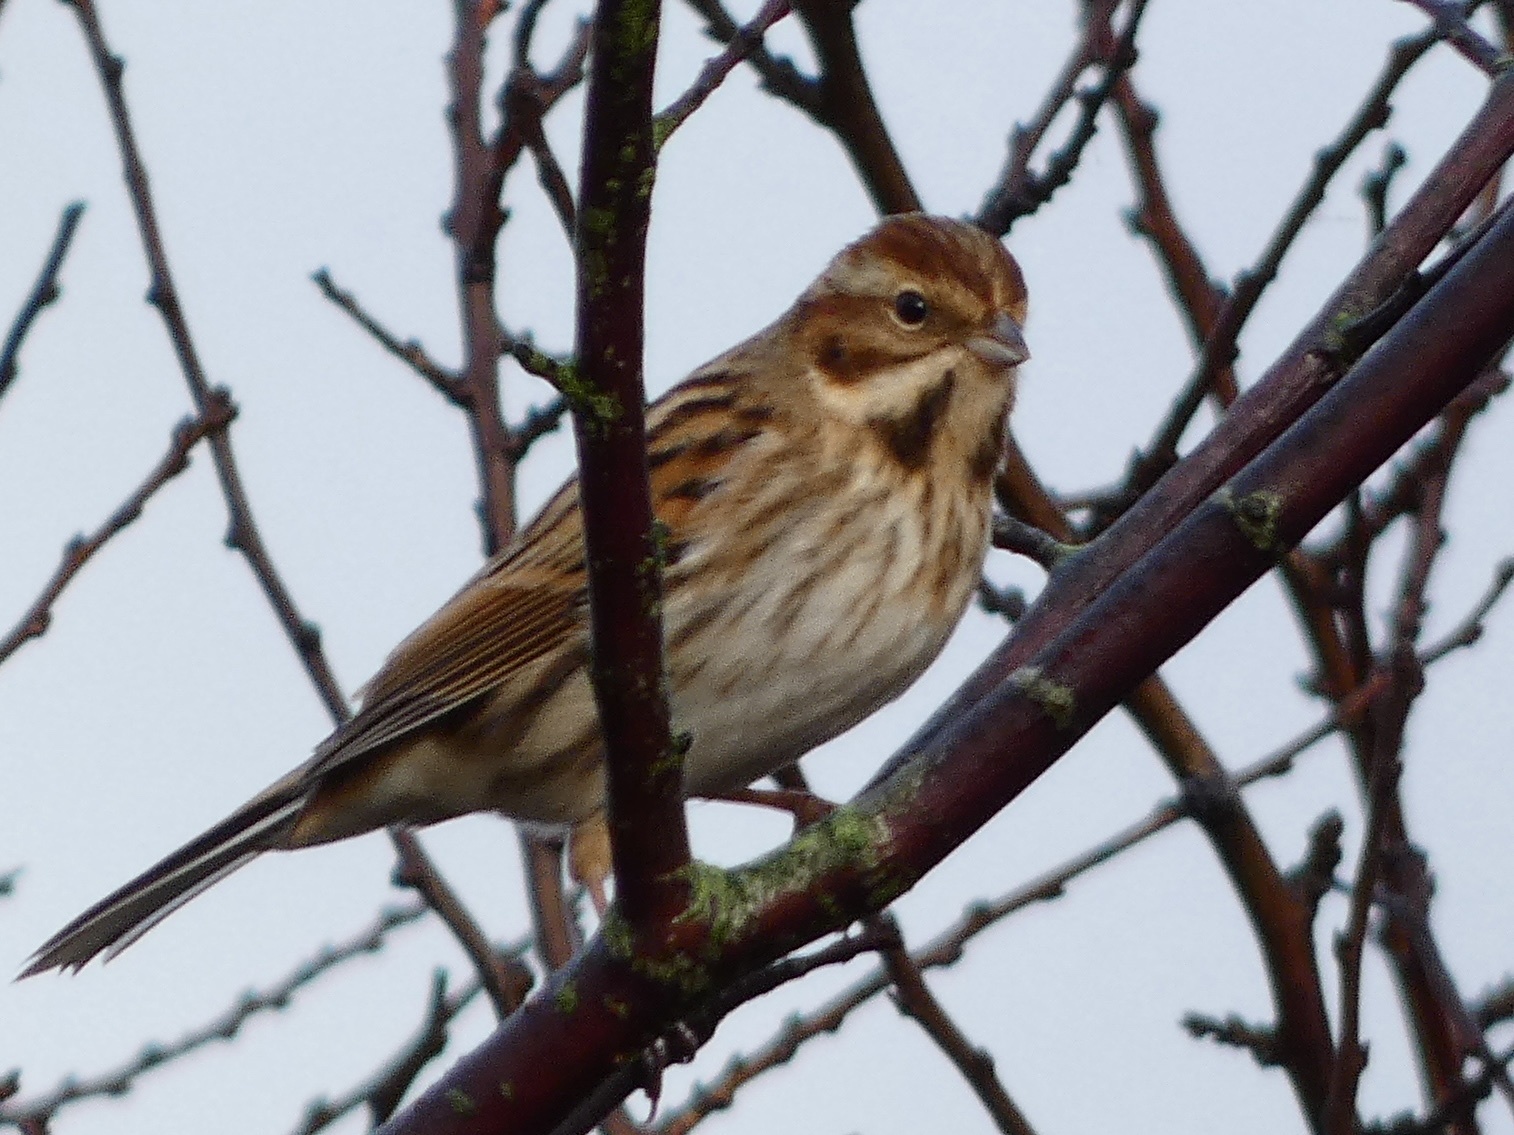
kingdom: Animalia
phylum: Chordata
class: Aves
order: Passeriformes
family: Emberizidae
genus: Emberiza
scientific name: Emberiza schoeniclus
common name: Reed bunting
